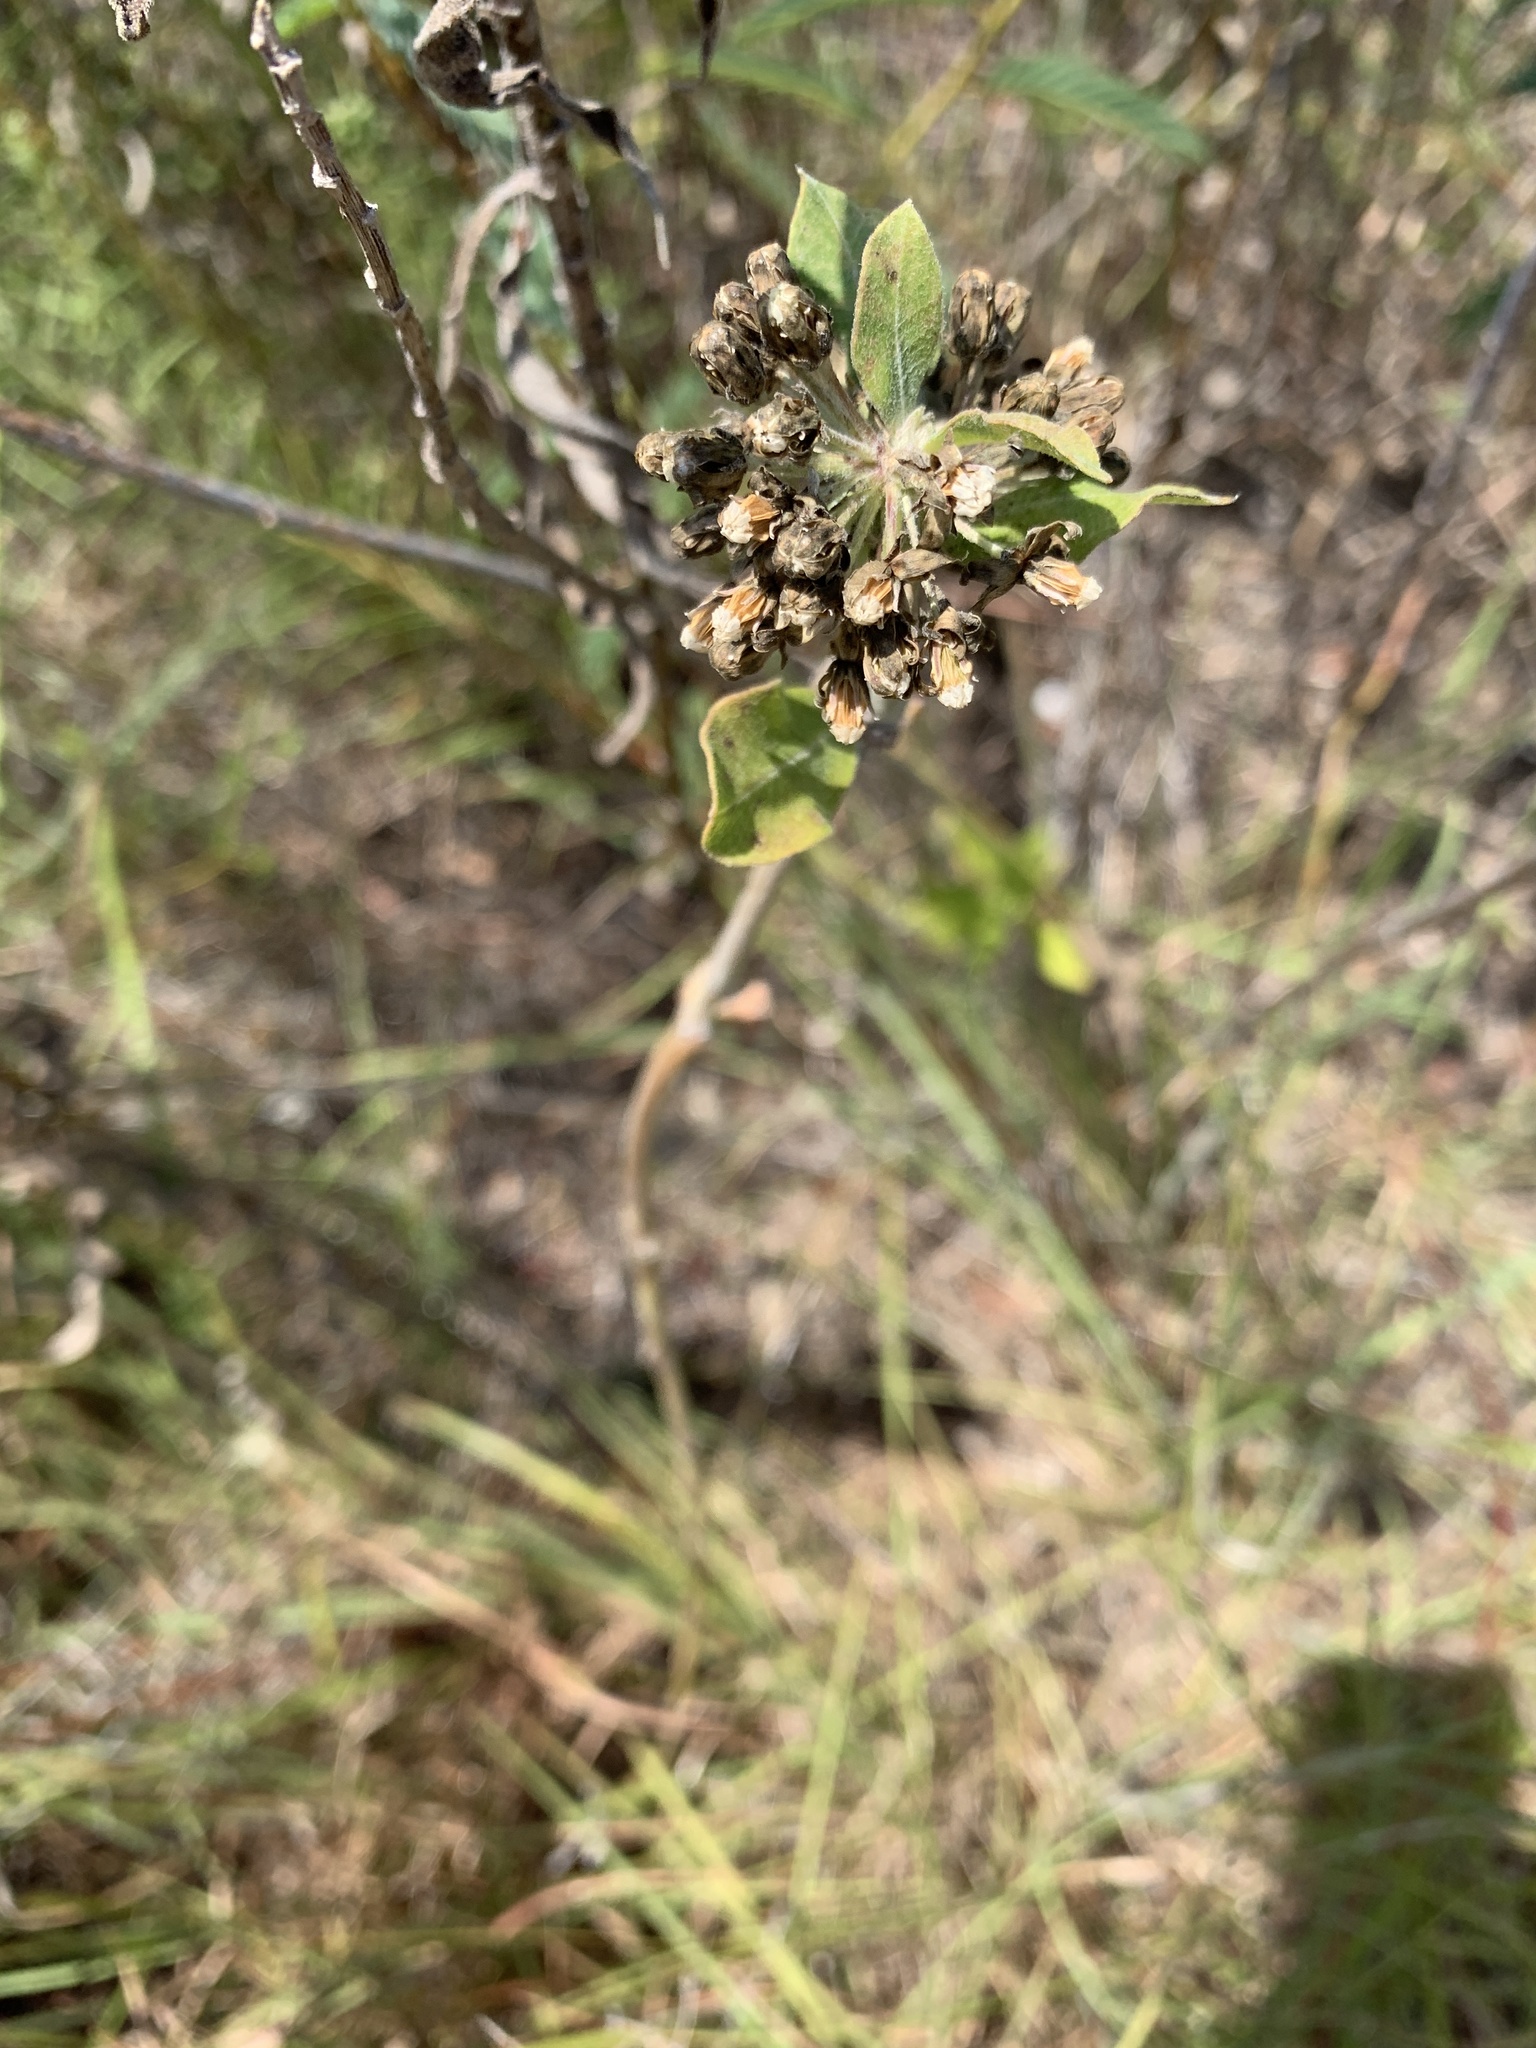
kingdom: Plantae
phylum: Tracheophyta
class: Magnoliopsida
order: Gentianales
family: Apocynaceae
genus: Asclepias
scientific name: Asclepias viridiflora
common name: Green comet milkweed
